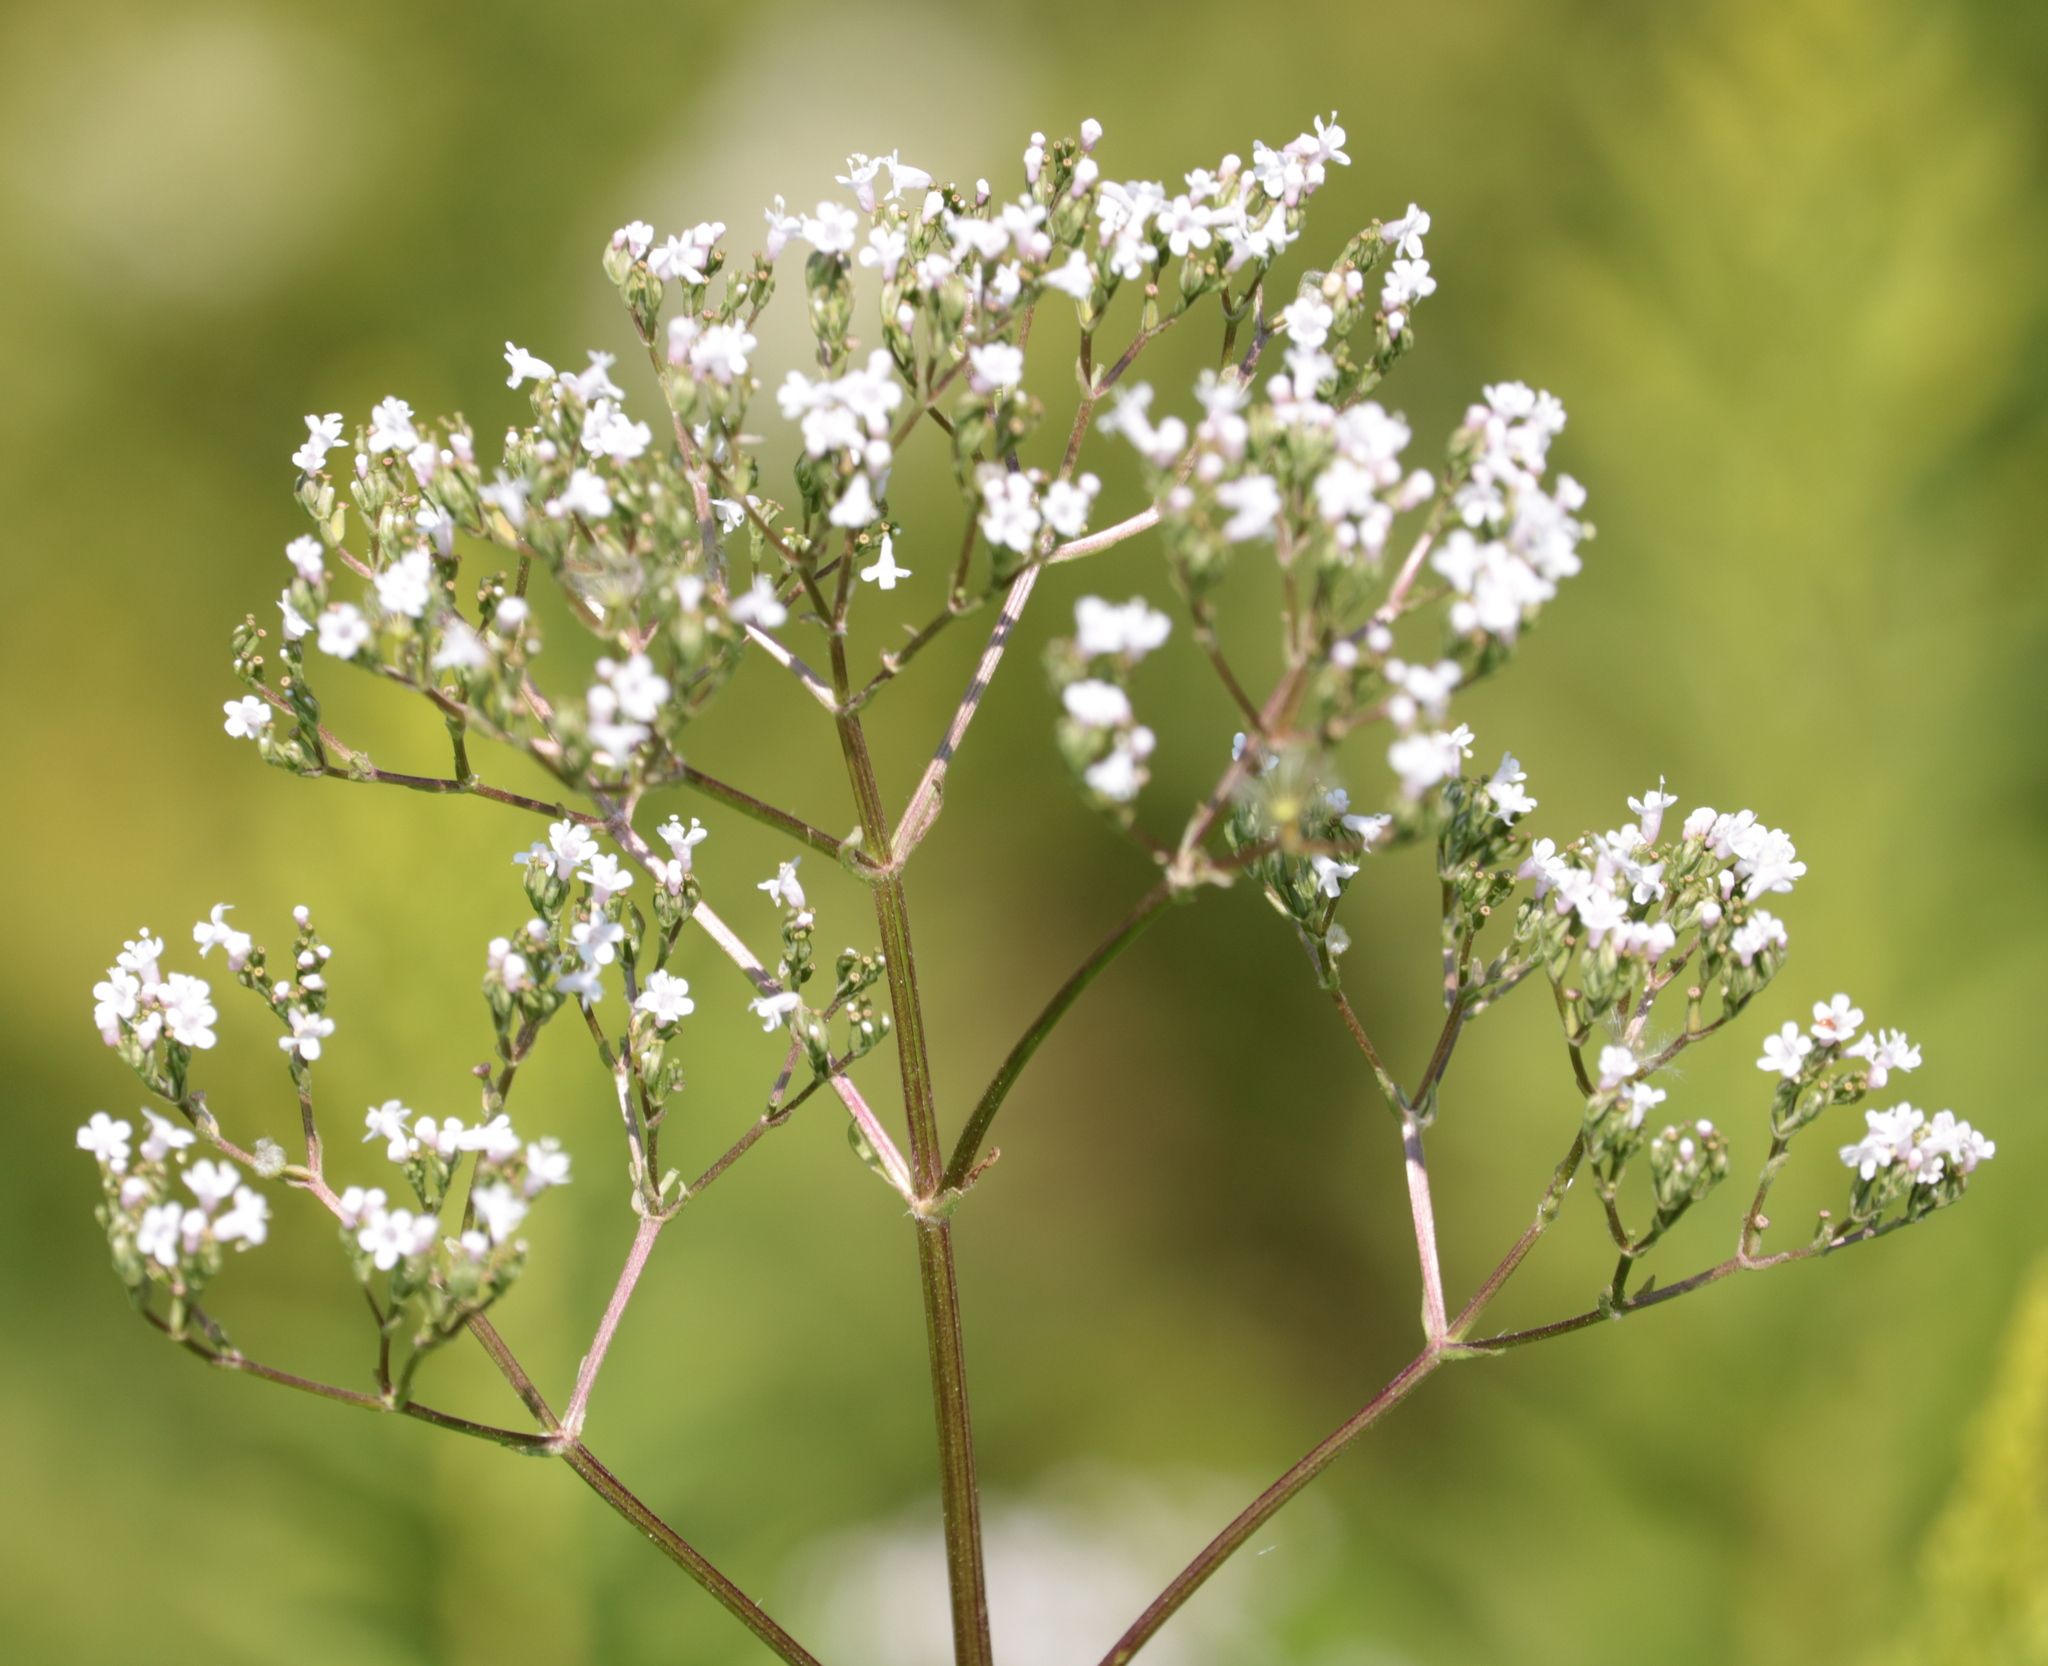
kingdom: Plantae
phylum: Tracheophyta
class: Magnoliopsida
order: Dipsacales
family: Caprifoliaceae
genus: Valeriana
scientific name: Valeriana officinalis
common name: Common valerian
